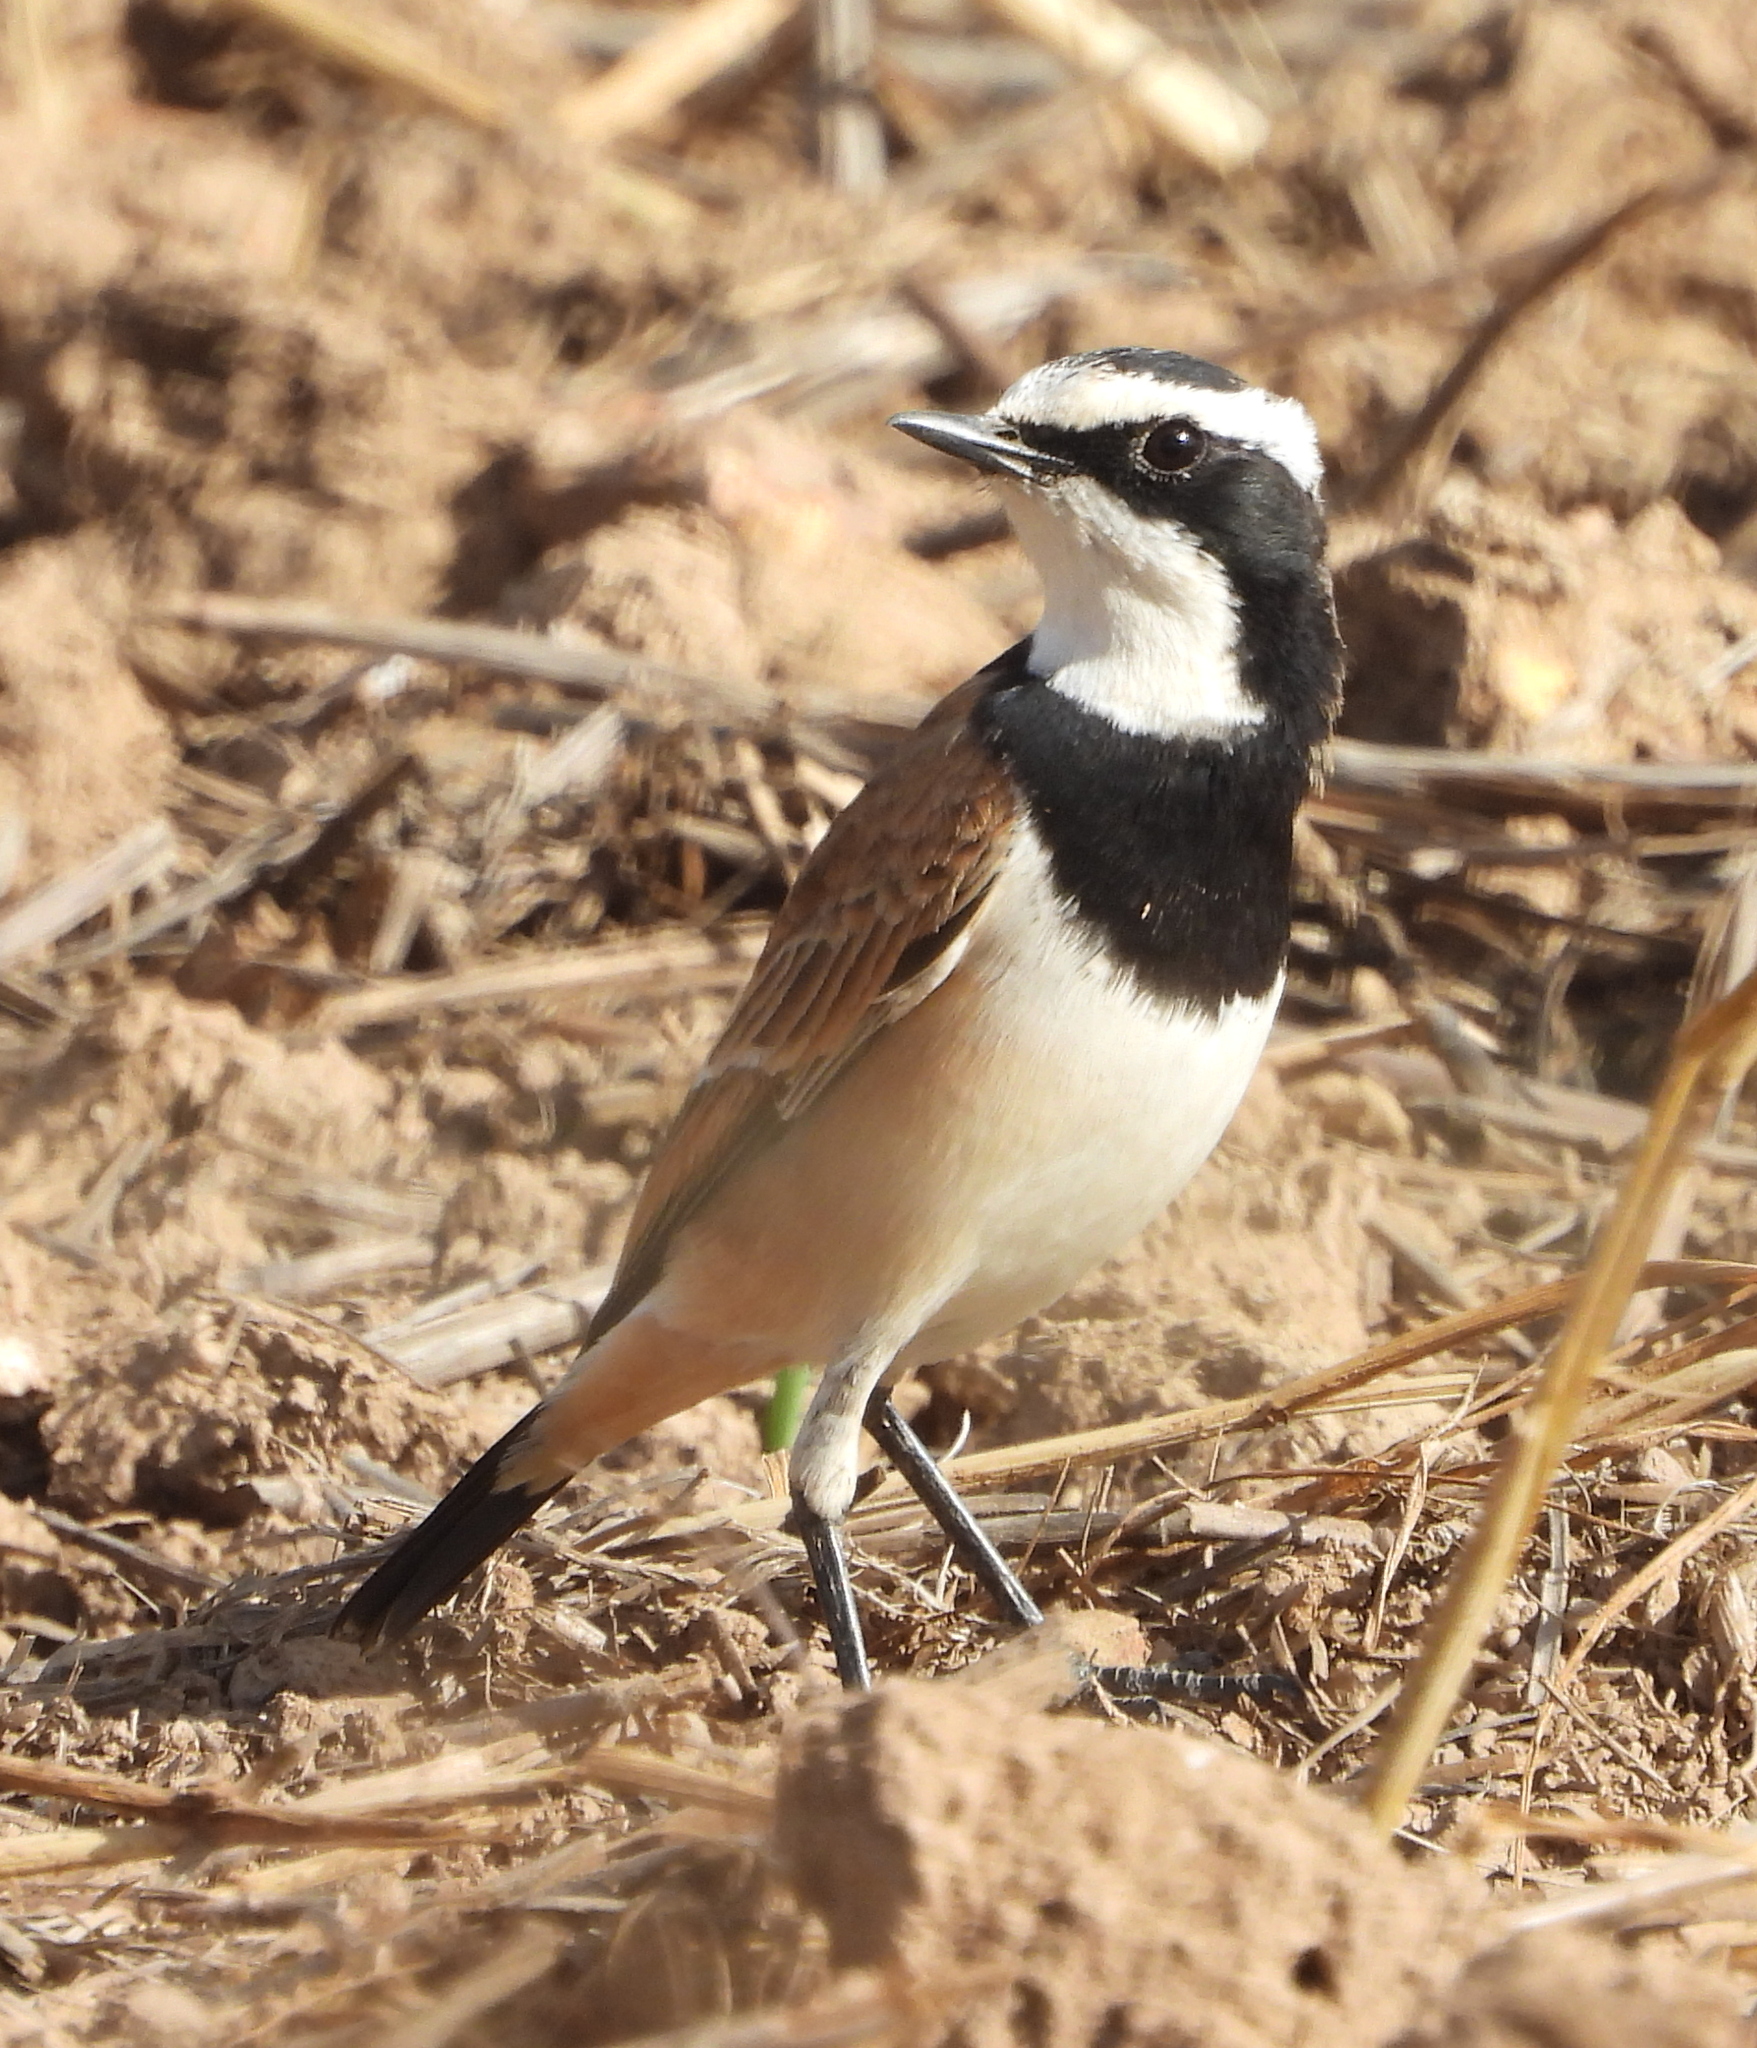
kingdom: Animalia
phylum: Chordata
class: Aves
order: Passeriformes
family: Muscicapidae
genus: Oenanthe
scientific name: Oenanthe pileata
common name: Capped wheatear
